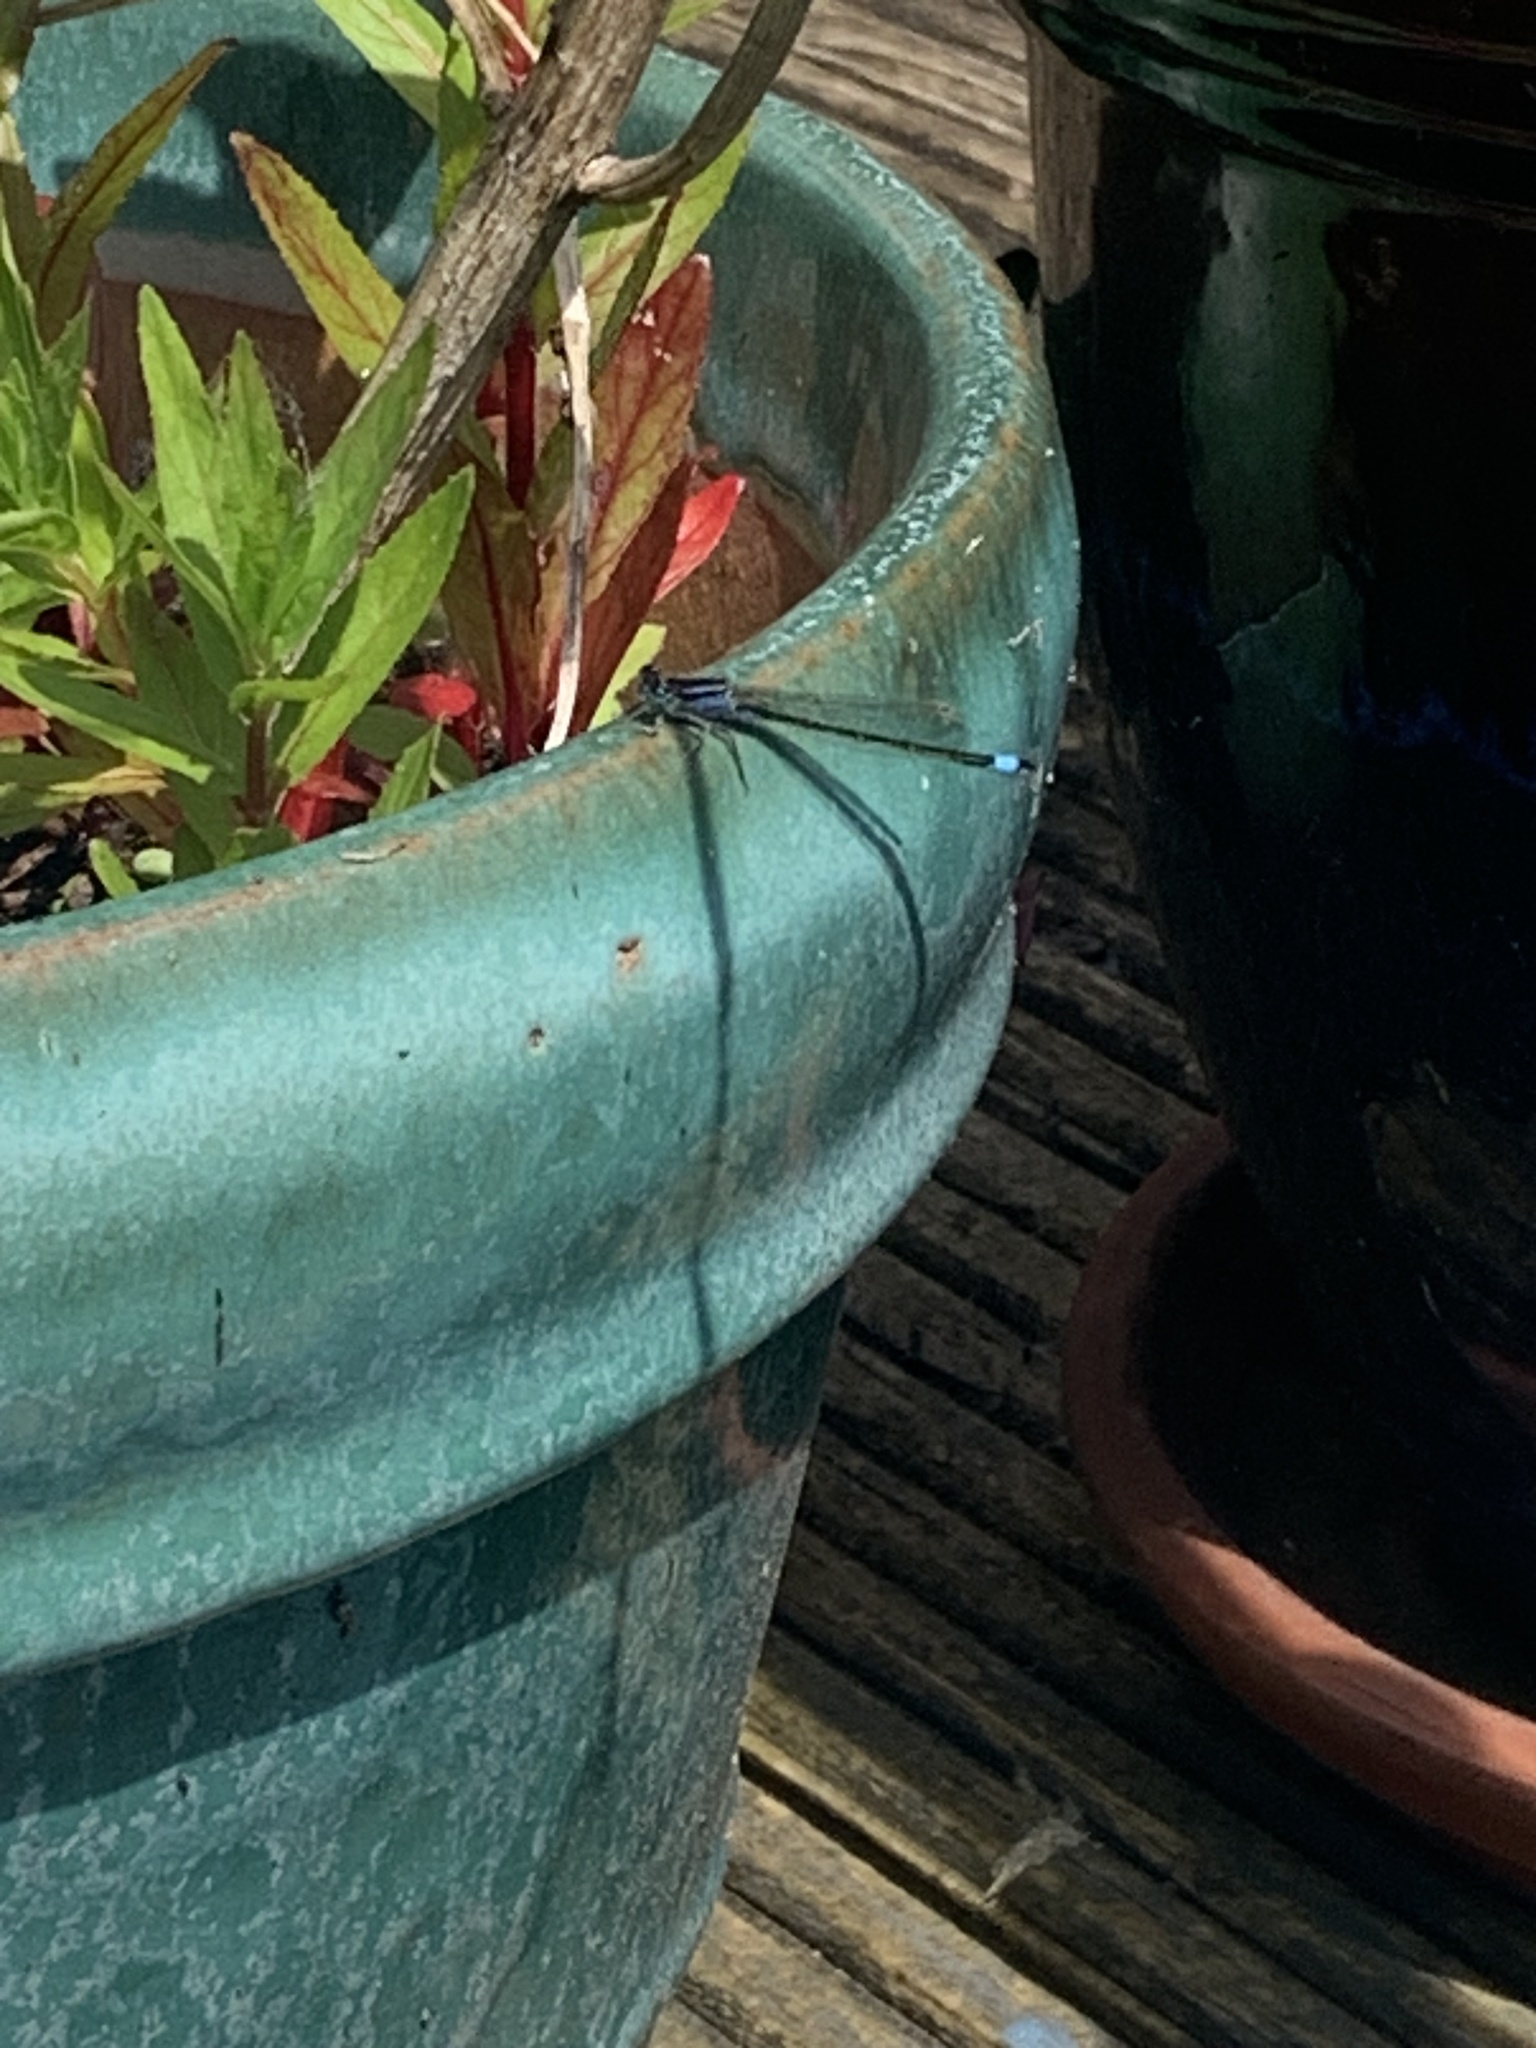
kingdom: Animalia
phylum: Arthropoda
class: Insecta
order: Odonata
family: Coenagrionidae
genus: Ischnura
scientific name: Ischnura elegans
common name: Blue-tailed damselfly
